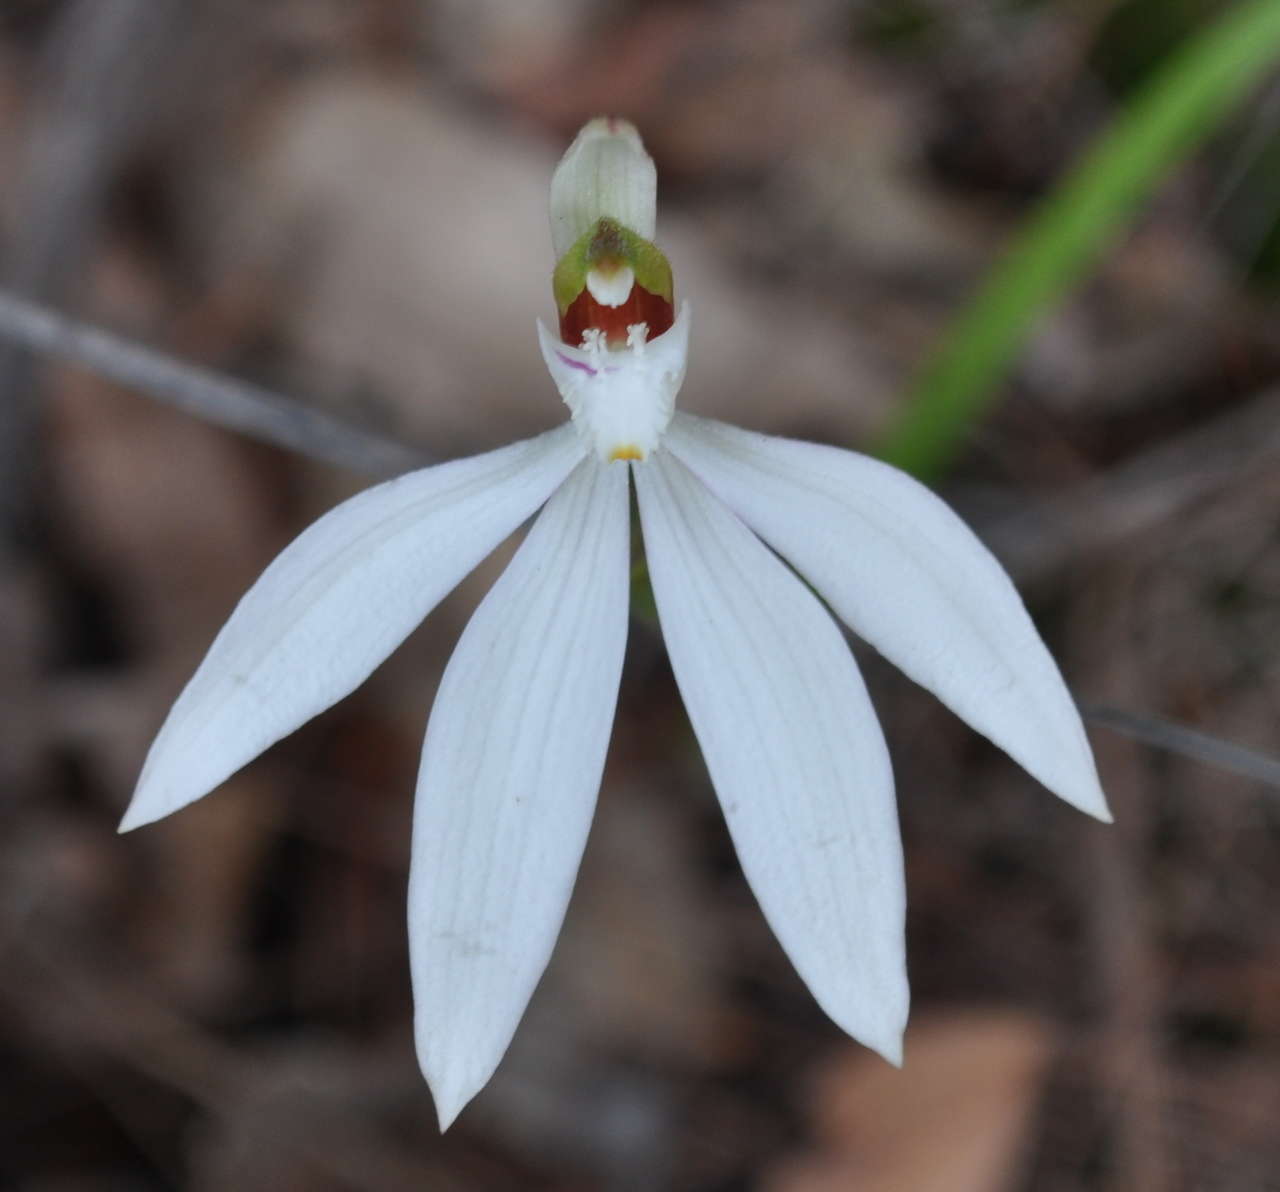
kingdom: Plantae
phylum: Tracheophyta
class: Liliopsida
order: Asparagales
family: Orchidaceae
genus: Caladenia
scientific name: Caladenia catenata
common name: White caladenia
